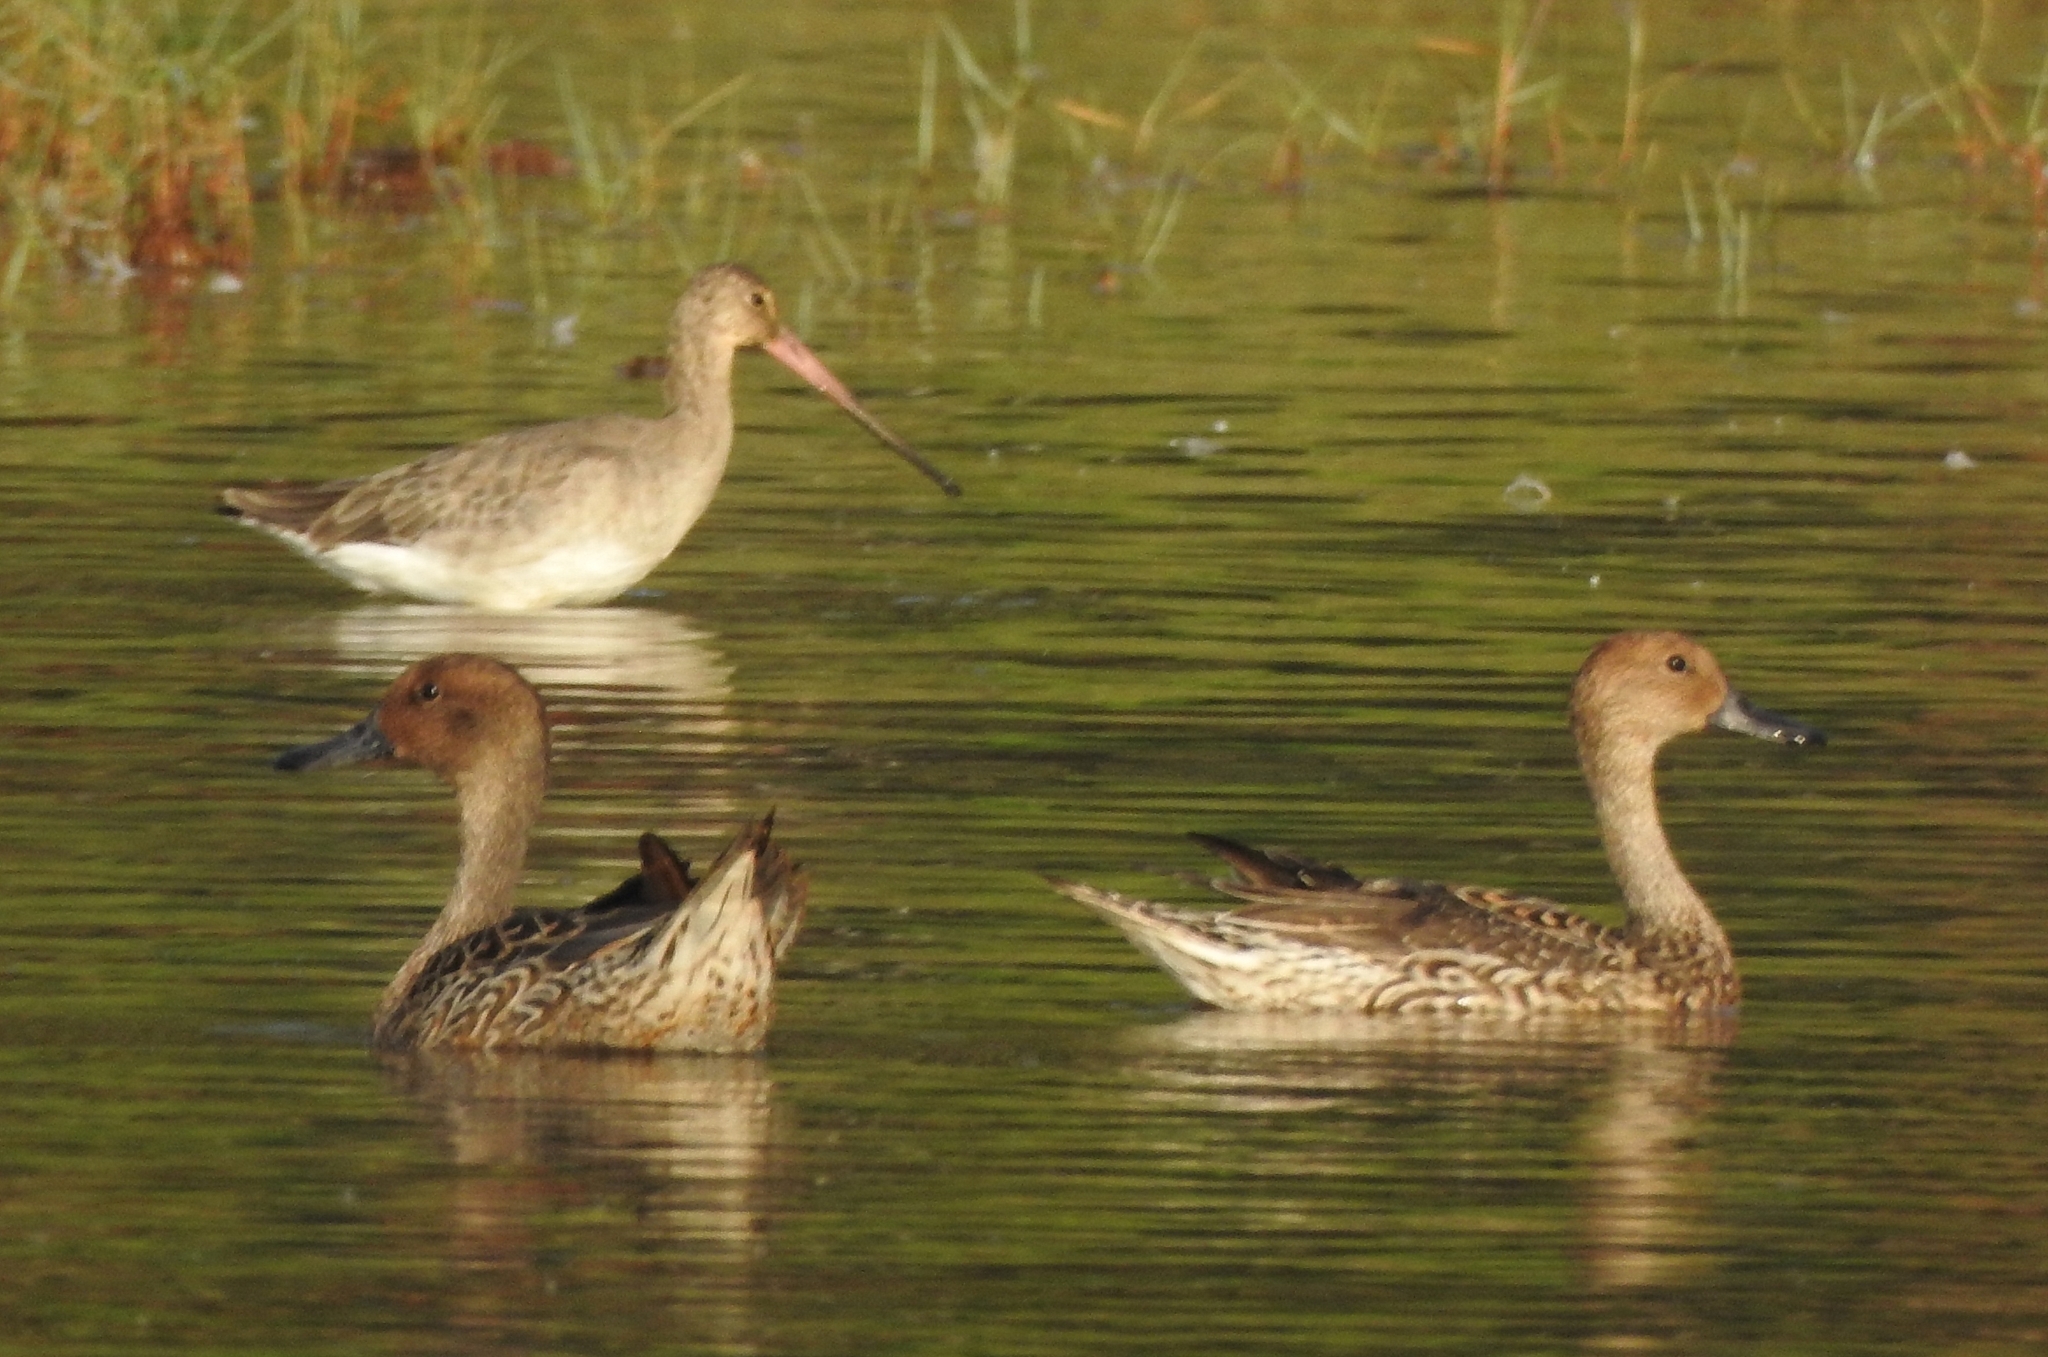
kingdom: Animalia
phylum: Chordata
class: Aves
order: Anseriformes
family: Anatidae
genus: Anas
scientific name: Anas acuta
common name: Northern pintail
